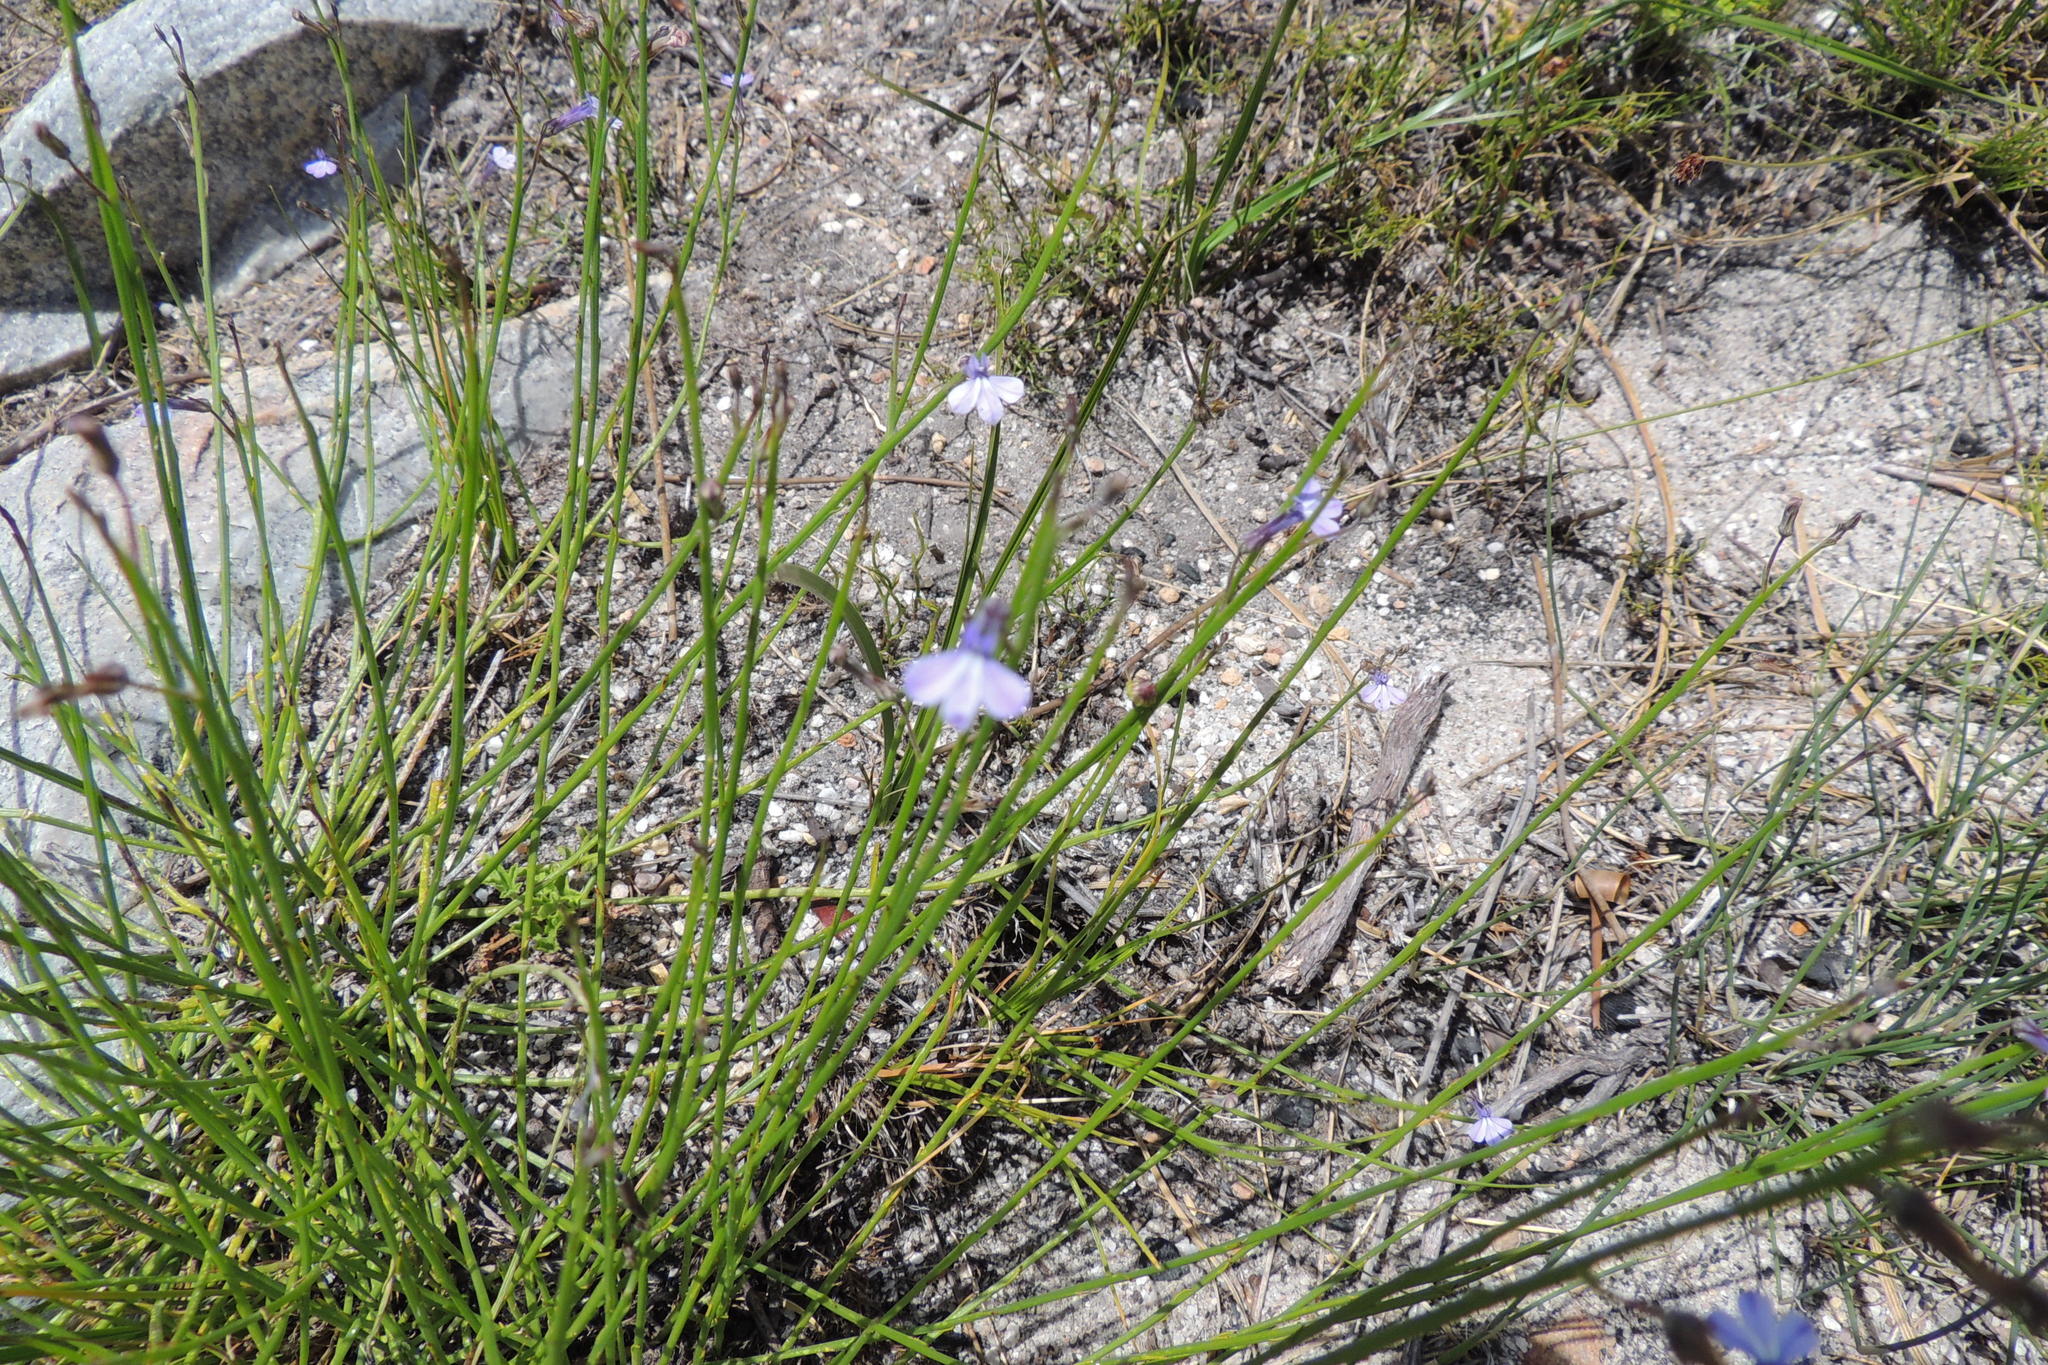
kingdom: Plantae
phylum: Tracheophyta
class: Magnoliopsida
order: Asterales
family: Campanulaceae
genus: Lobelia
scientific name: Lobelia capillifolia
